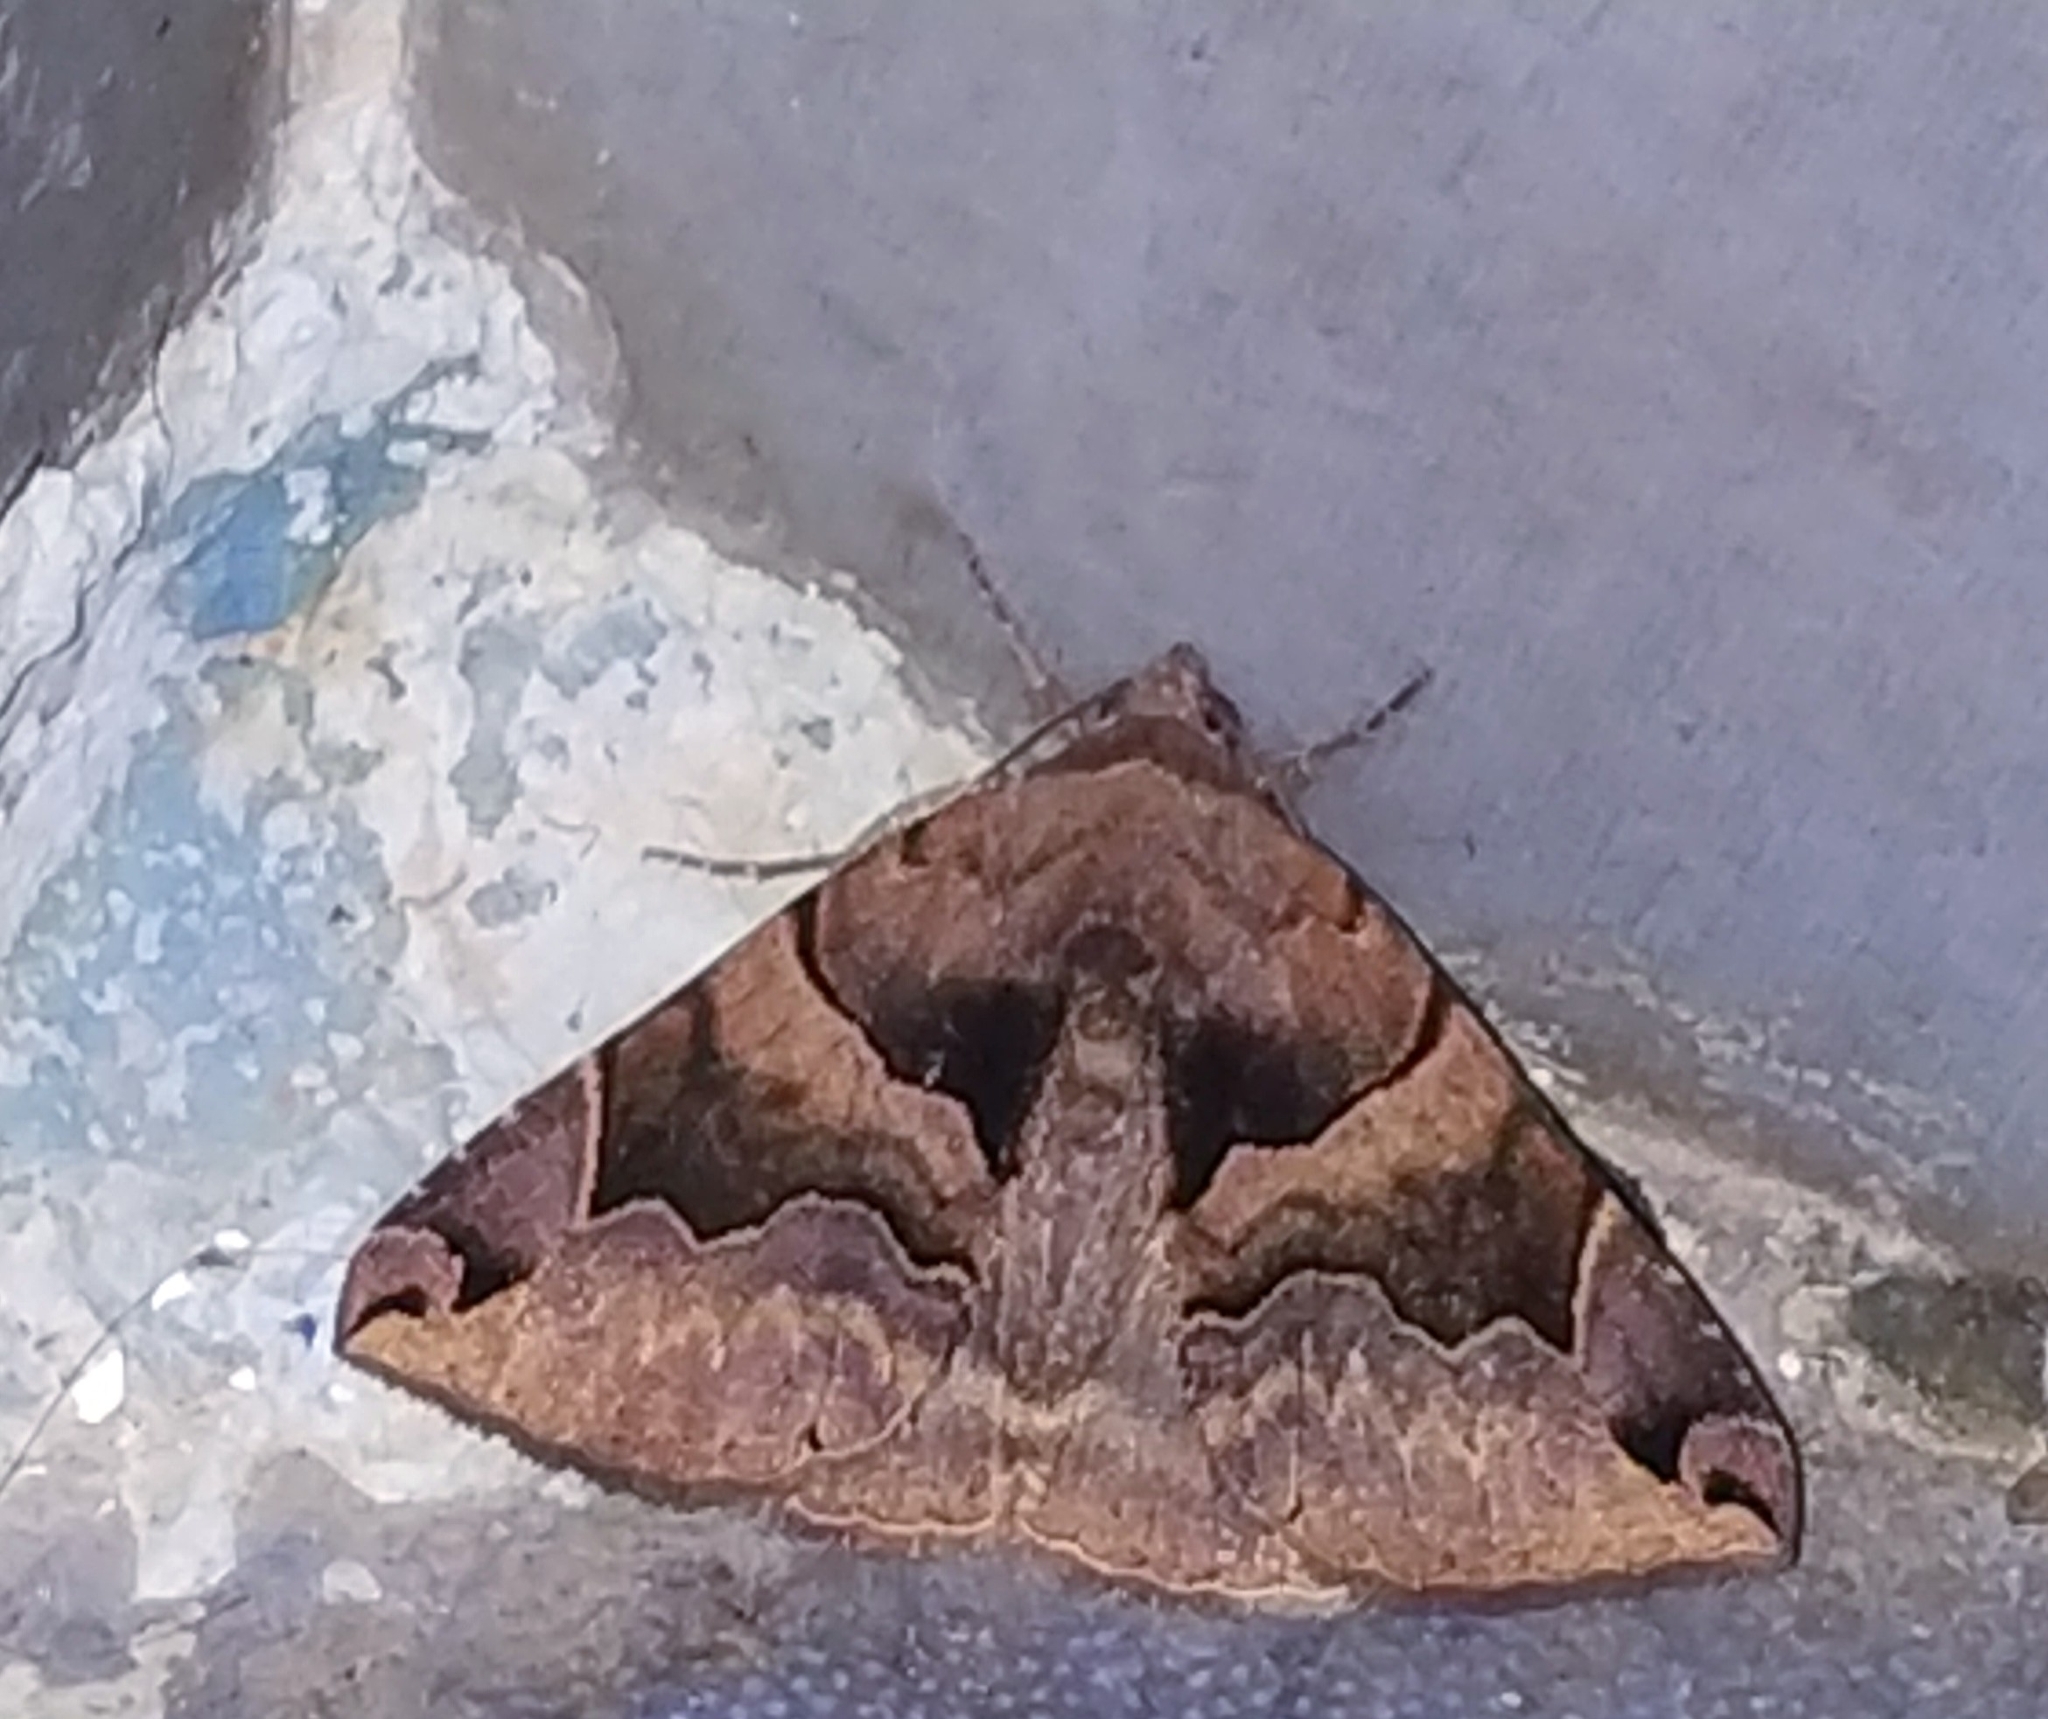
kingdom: Animalia
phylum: Arthropoda
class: Insecta
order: Lepidoptera
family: Erebidae
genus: Dysgonia
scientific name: Dysgonia simillima
